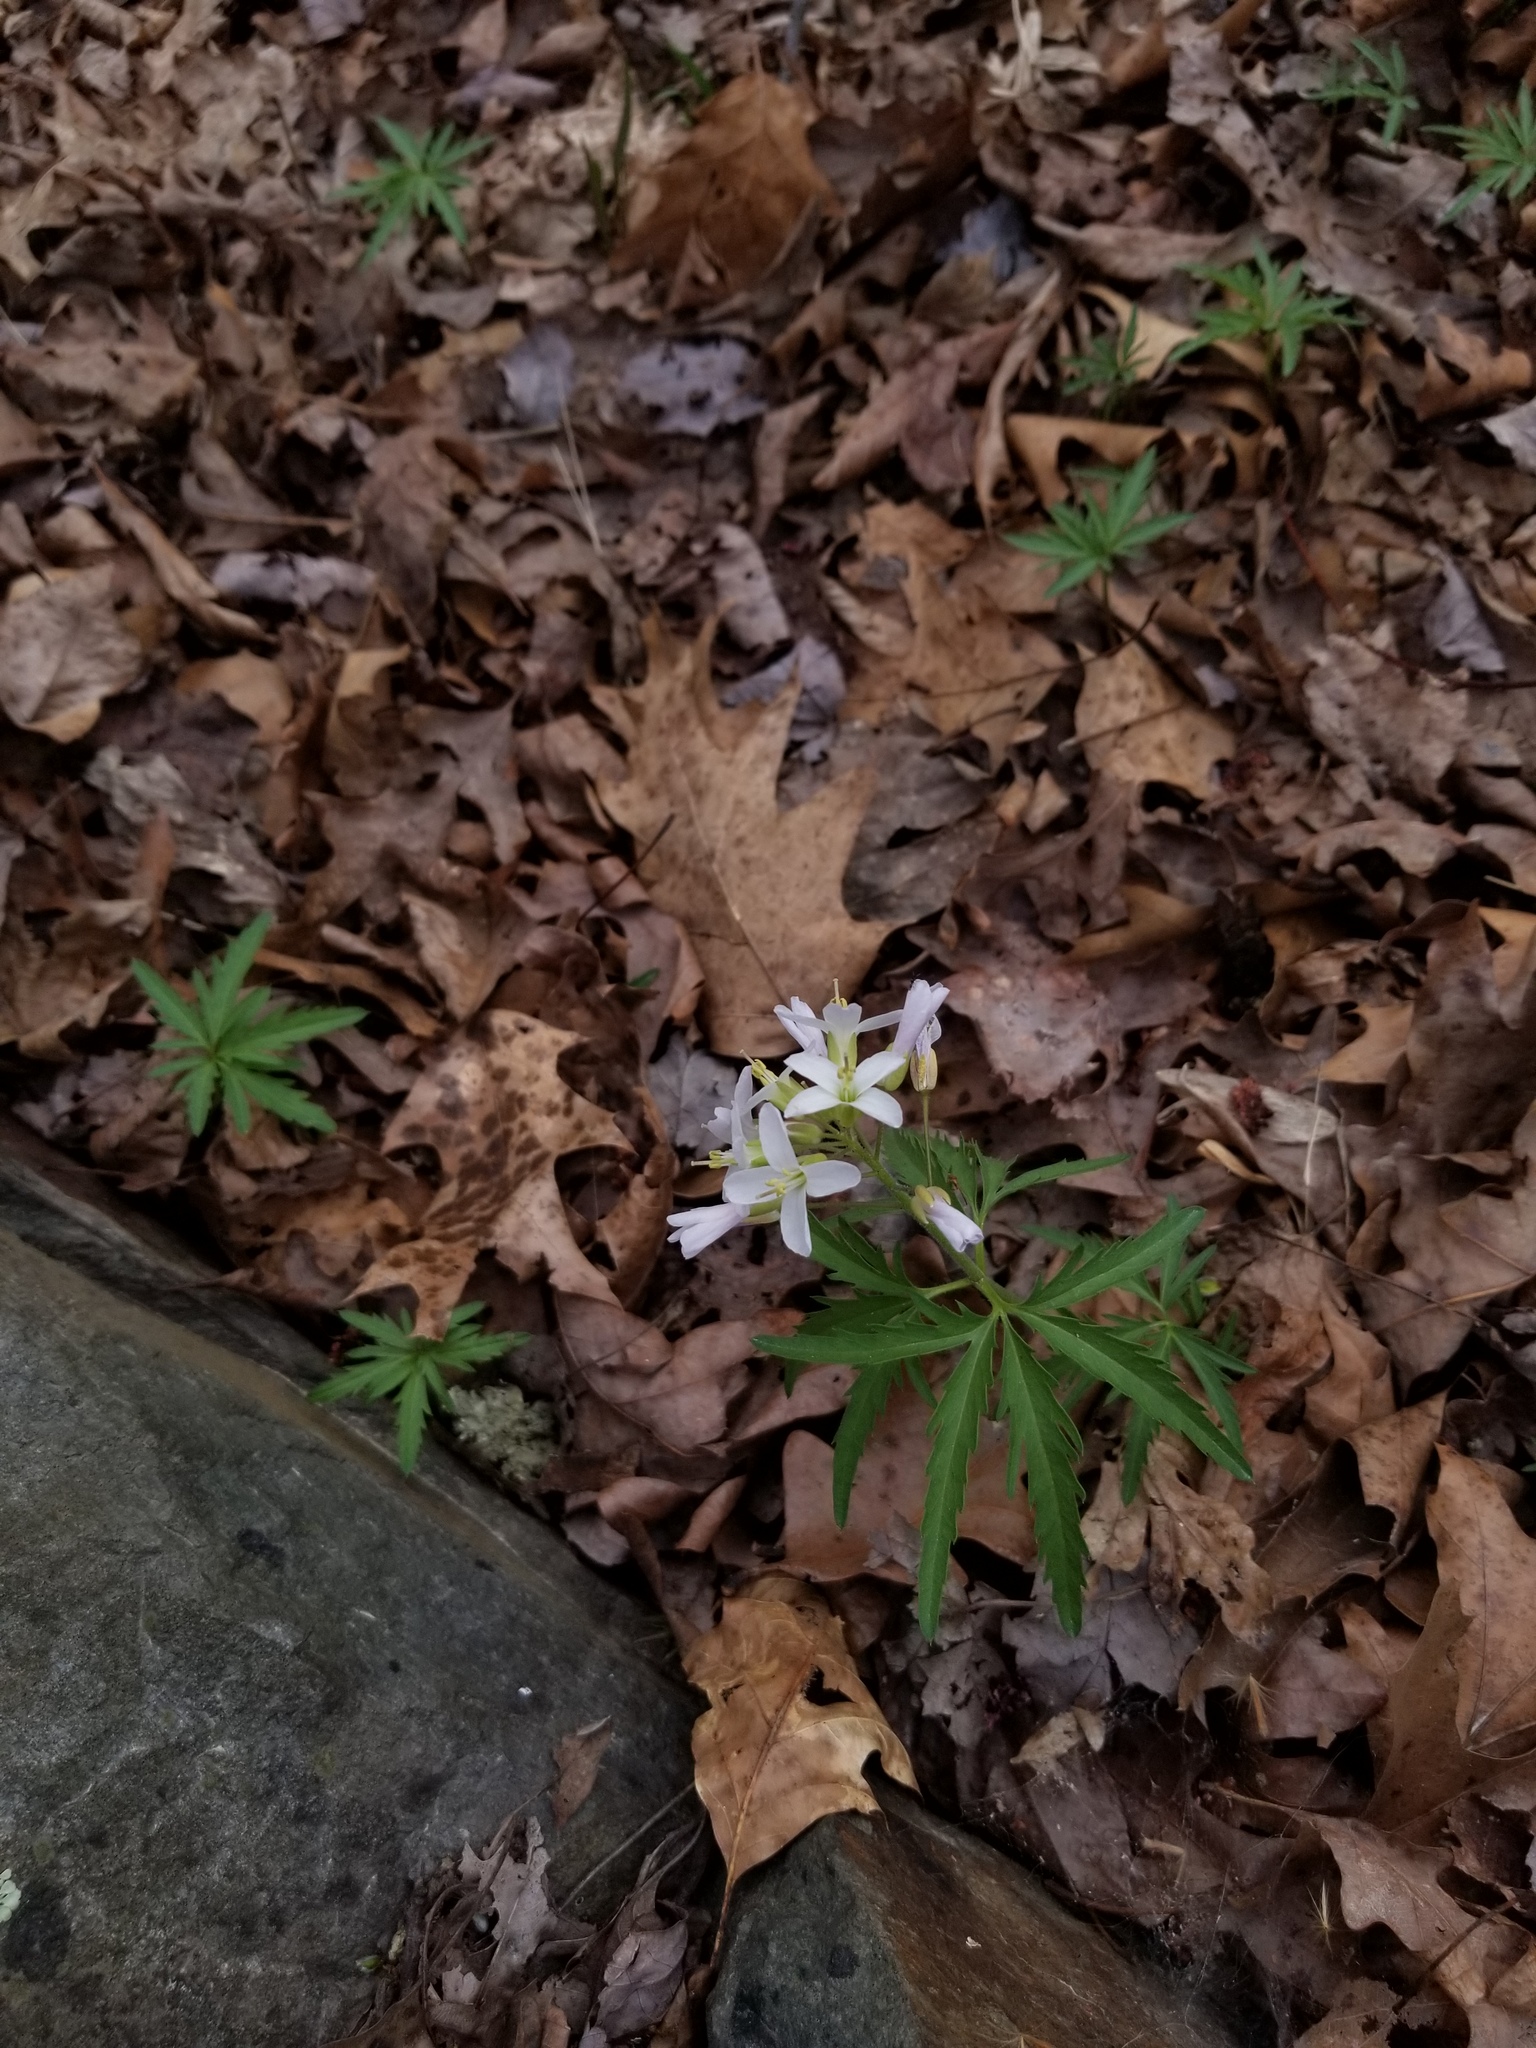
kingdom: Plantae
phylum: Tracheophyta
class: Magnoliopsida
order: Brassicales
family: Brassicaceae
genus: Cardamine
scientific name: Cardamine concatenata
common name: Cut-leaf toothcup
